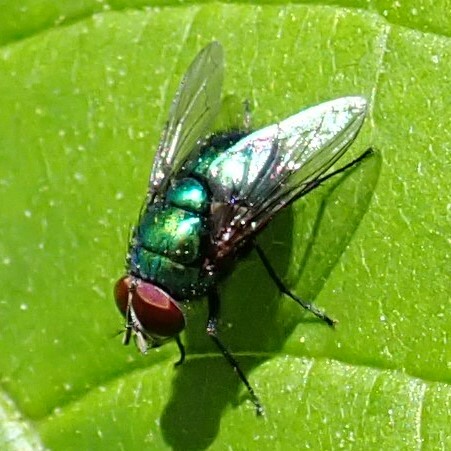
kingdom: Animalia
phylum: Arthropoda
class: Insecta
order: Diptera
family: Calliphoridae
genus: Lucilia
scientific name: Lucilia
